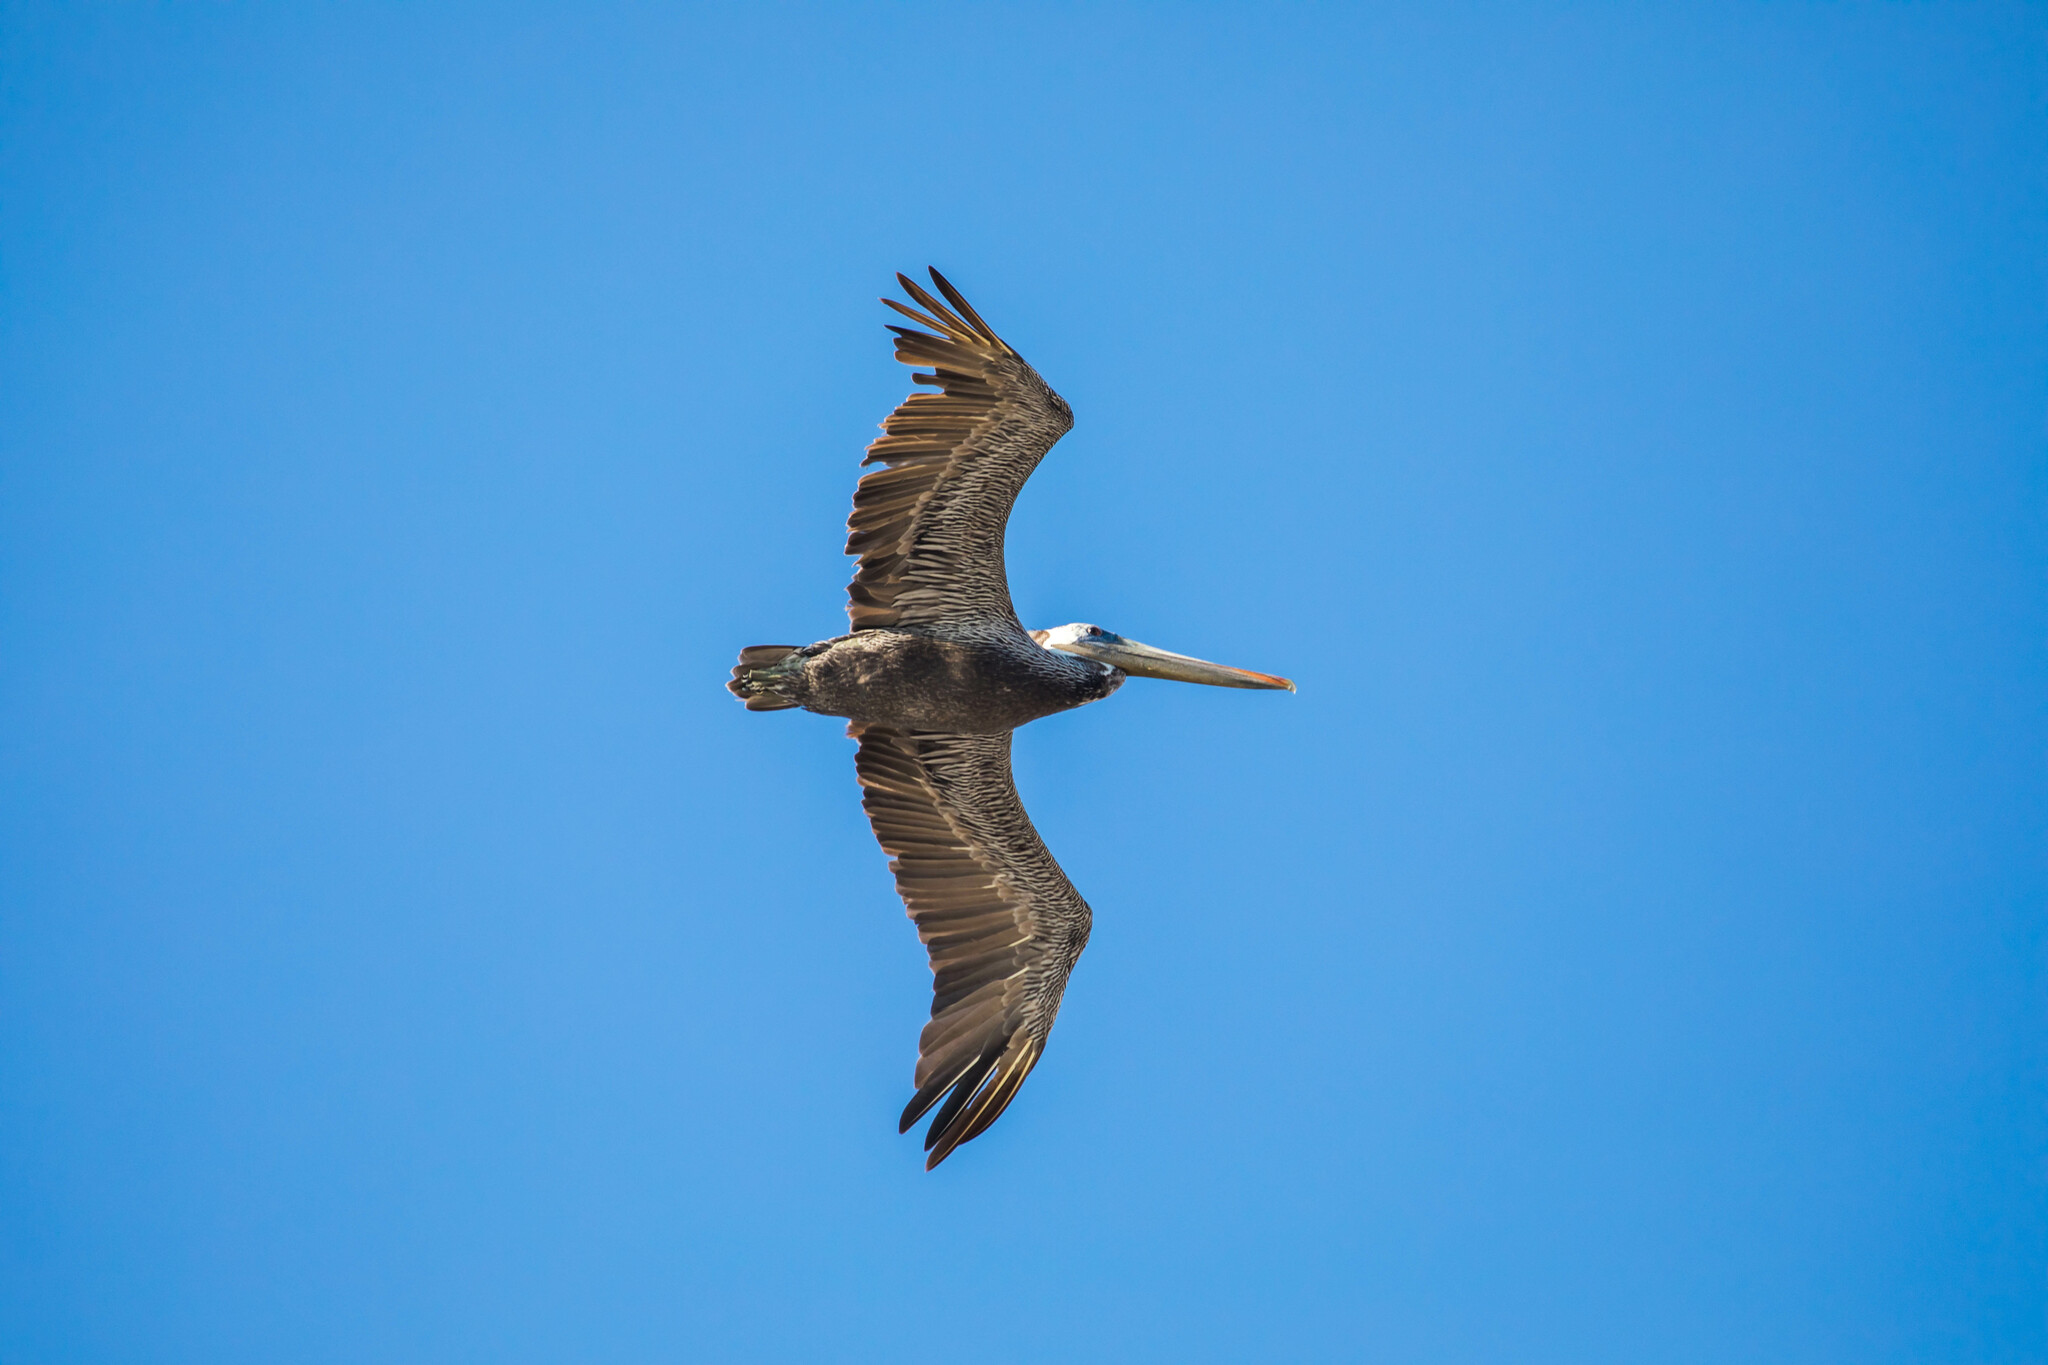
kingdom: Animalia
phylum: Chordata
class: Aves
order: Pelecaniformes
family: Pelecanidae
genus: Pelecanus
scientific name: Pelecanus occidentalis
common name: Brown pelican
